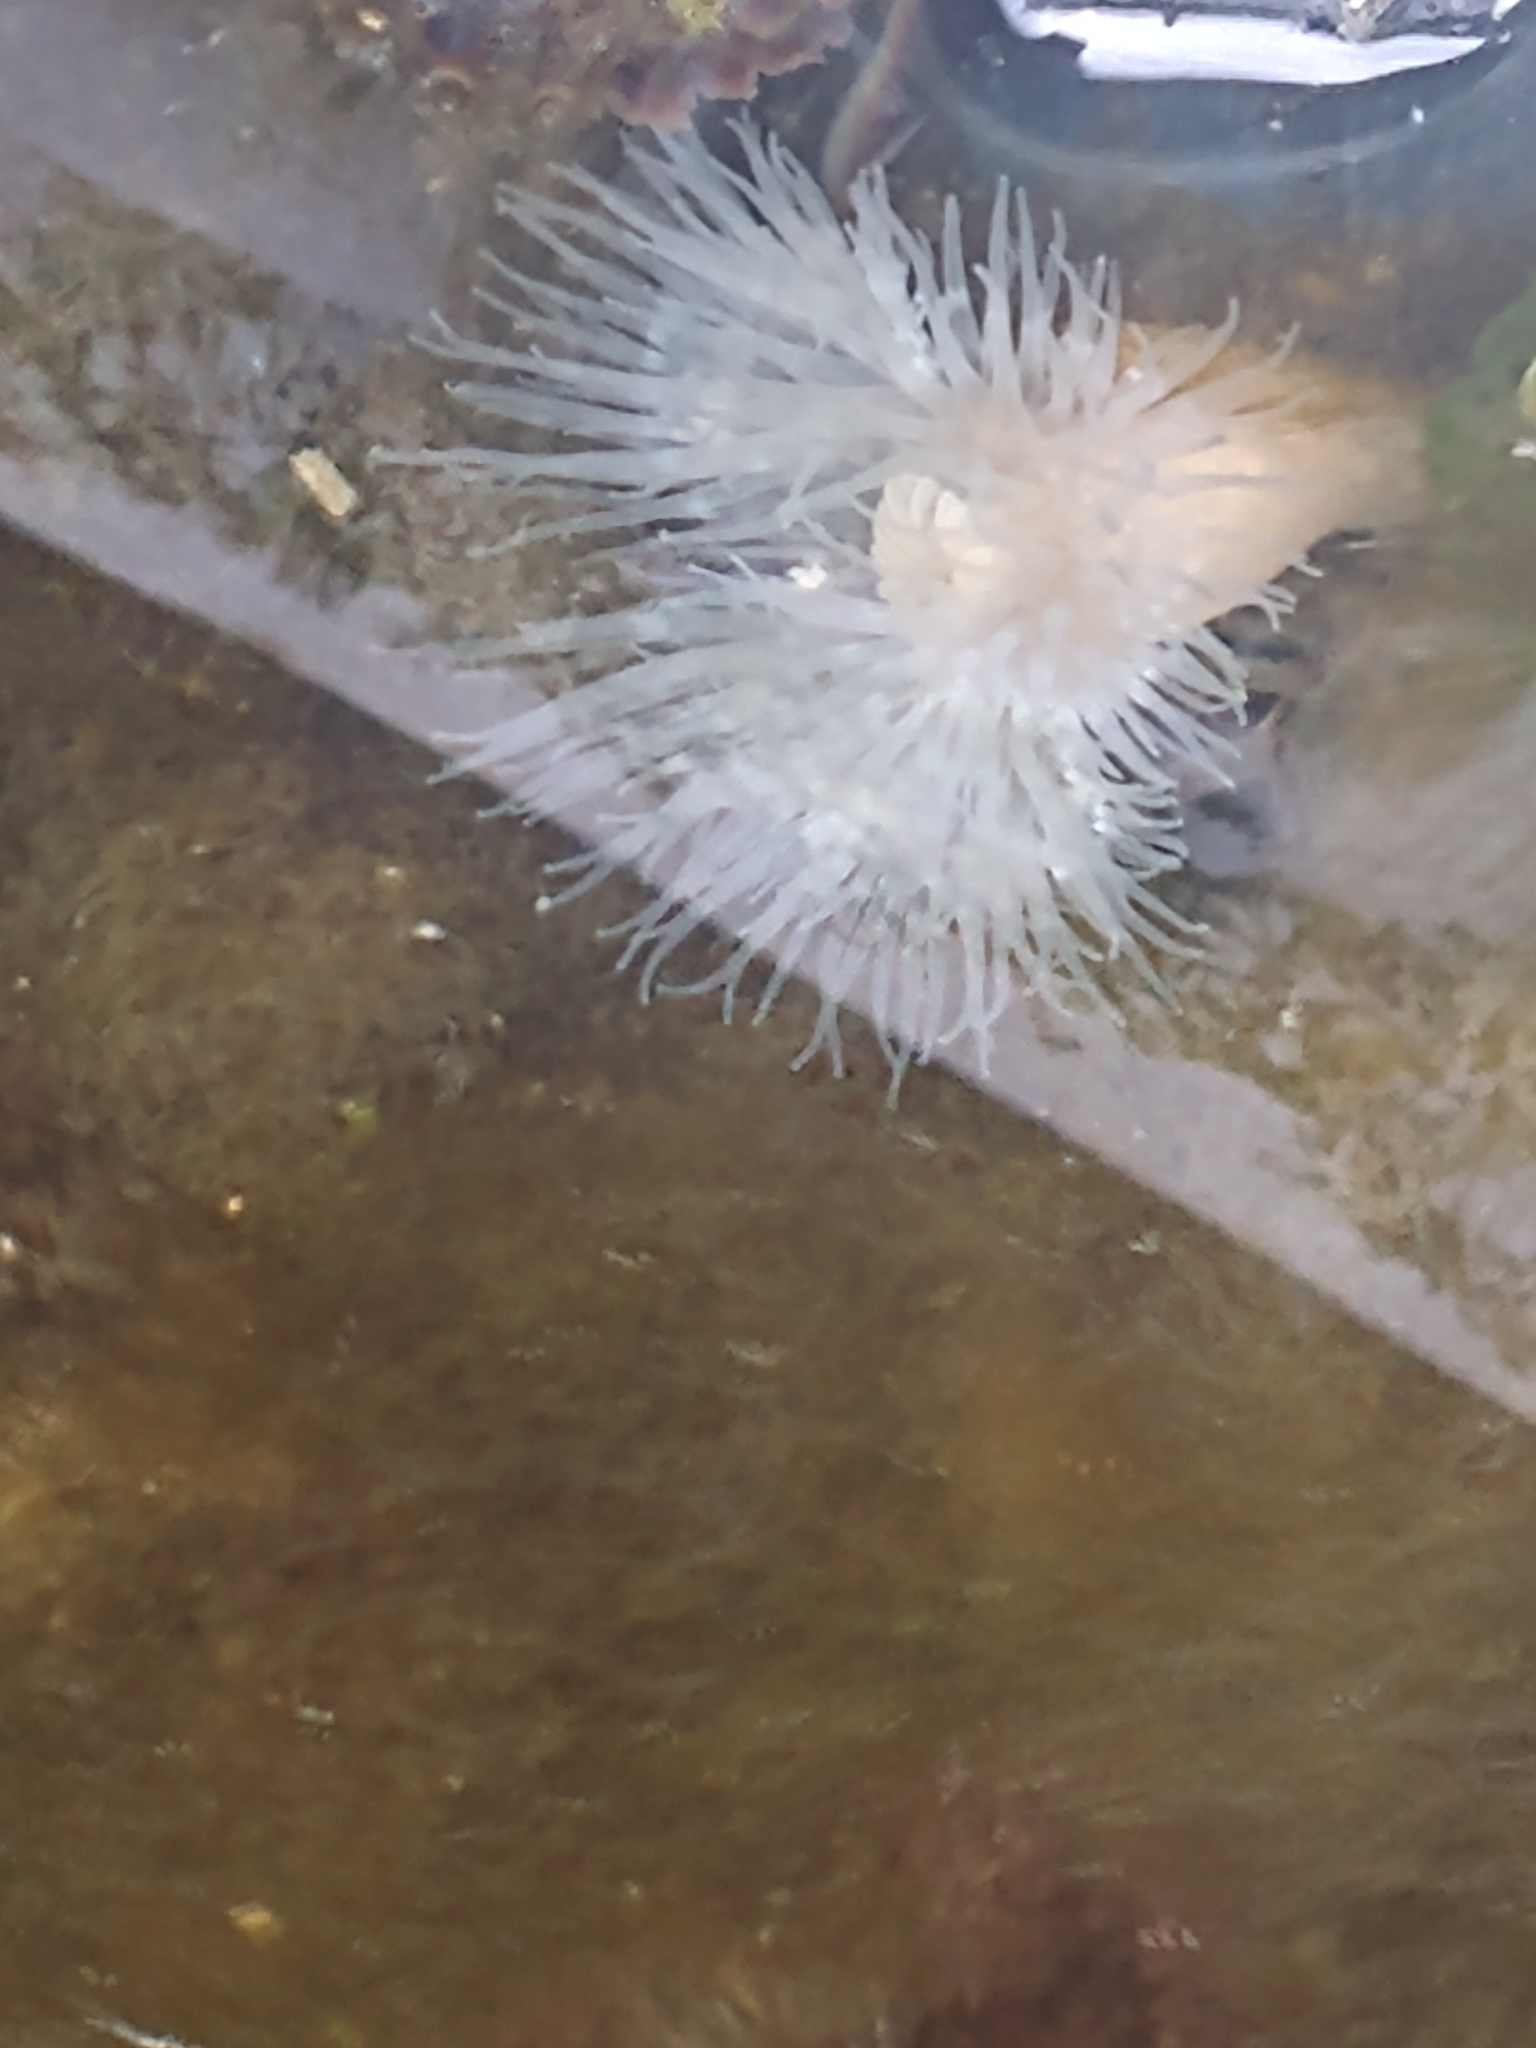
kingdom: Animalia
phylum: Cnidaria
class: Anthozoa
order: Actiniaria
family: Metridiidae
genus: Metridium
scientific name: Metridium senile
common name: Clonal plumose anemone
